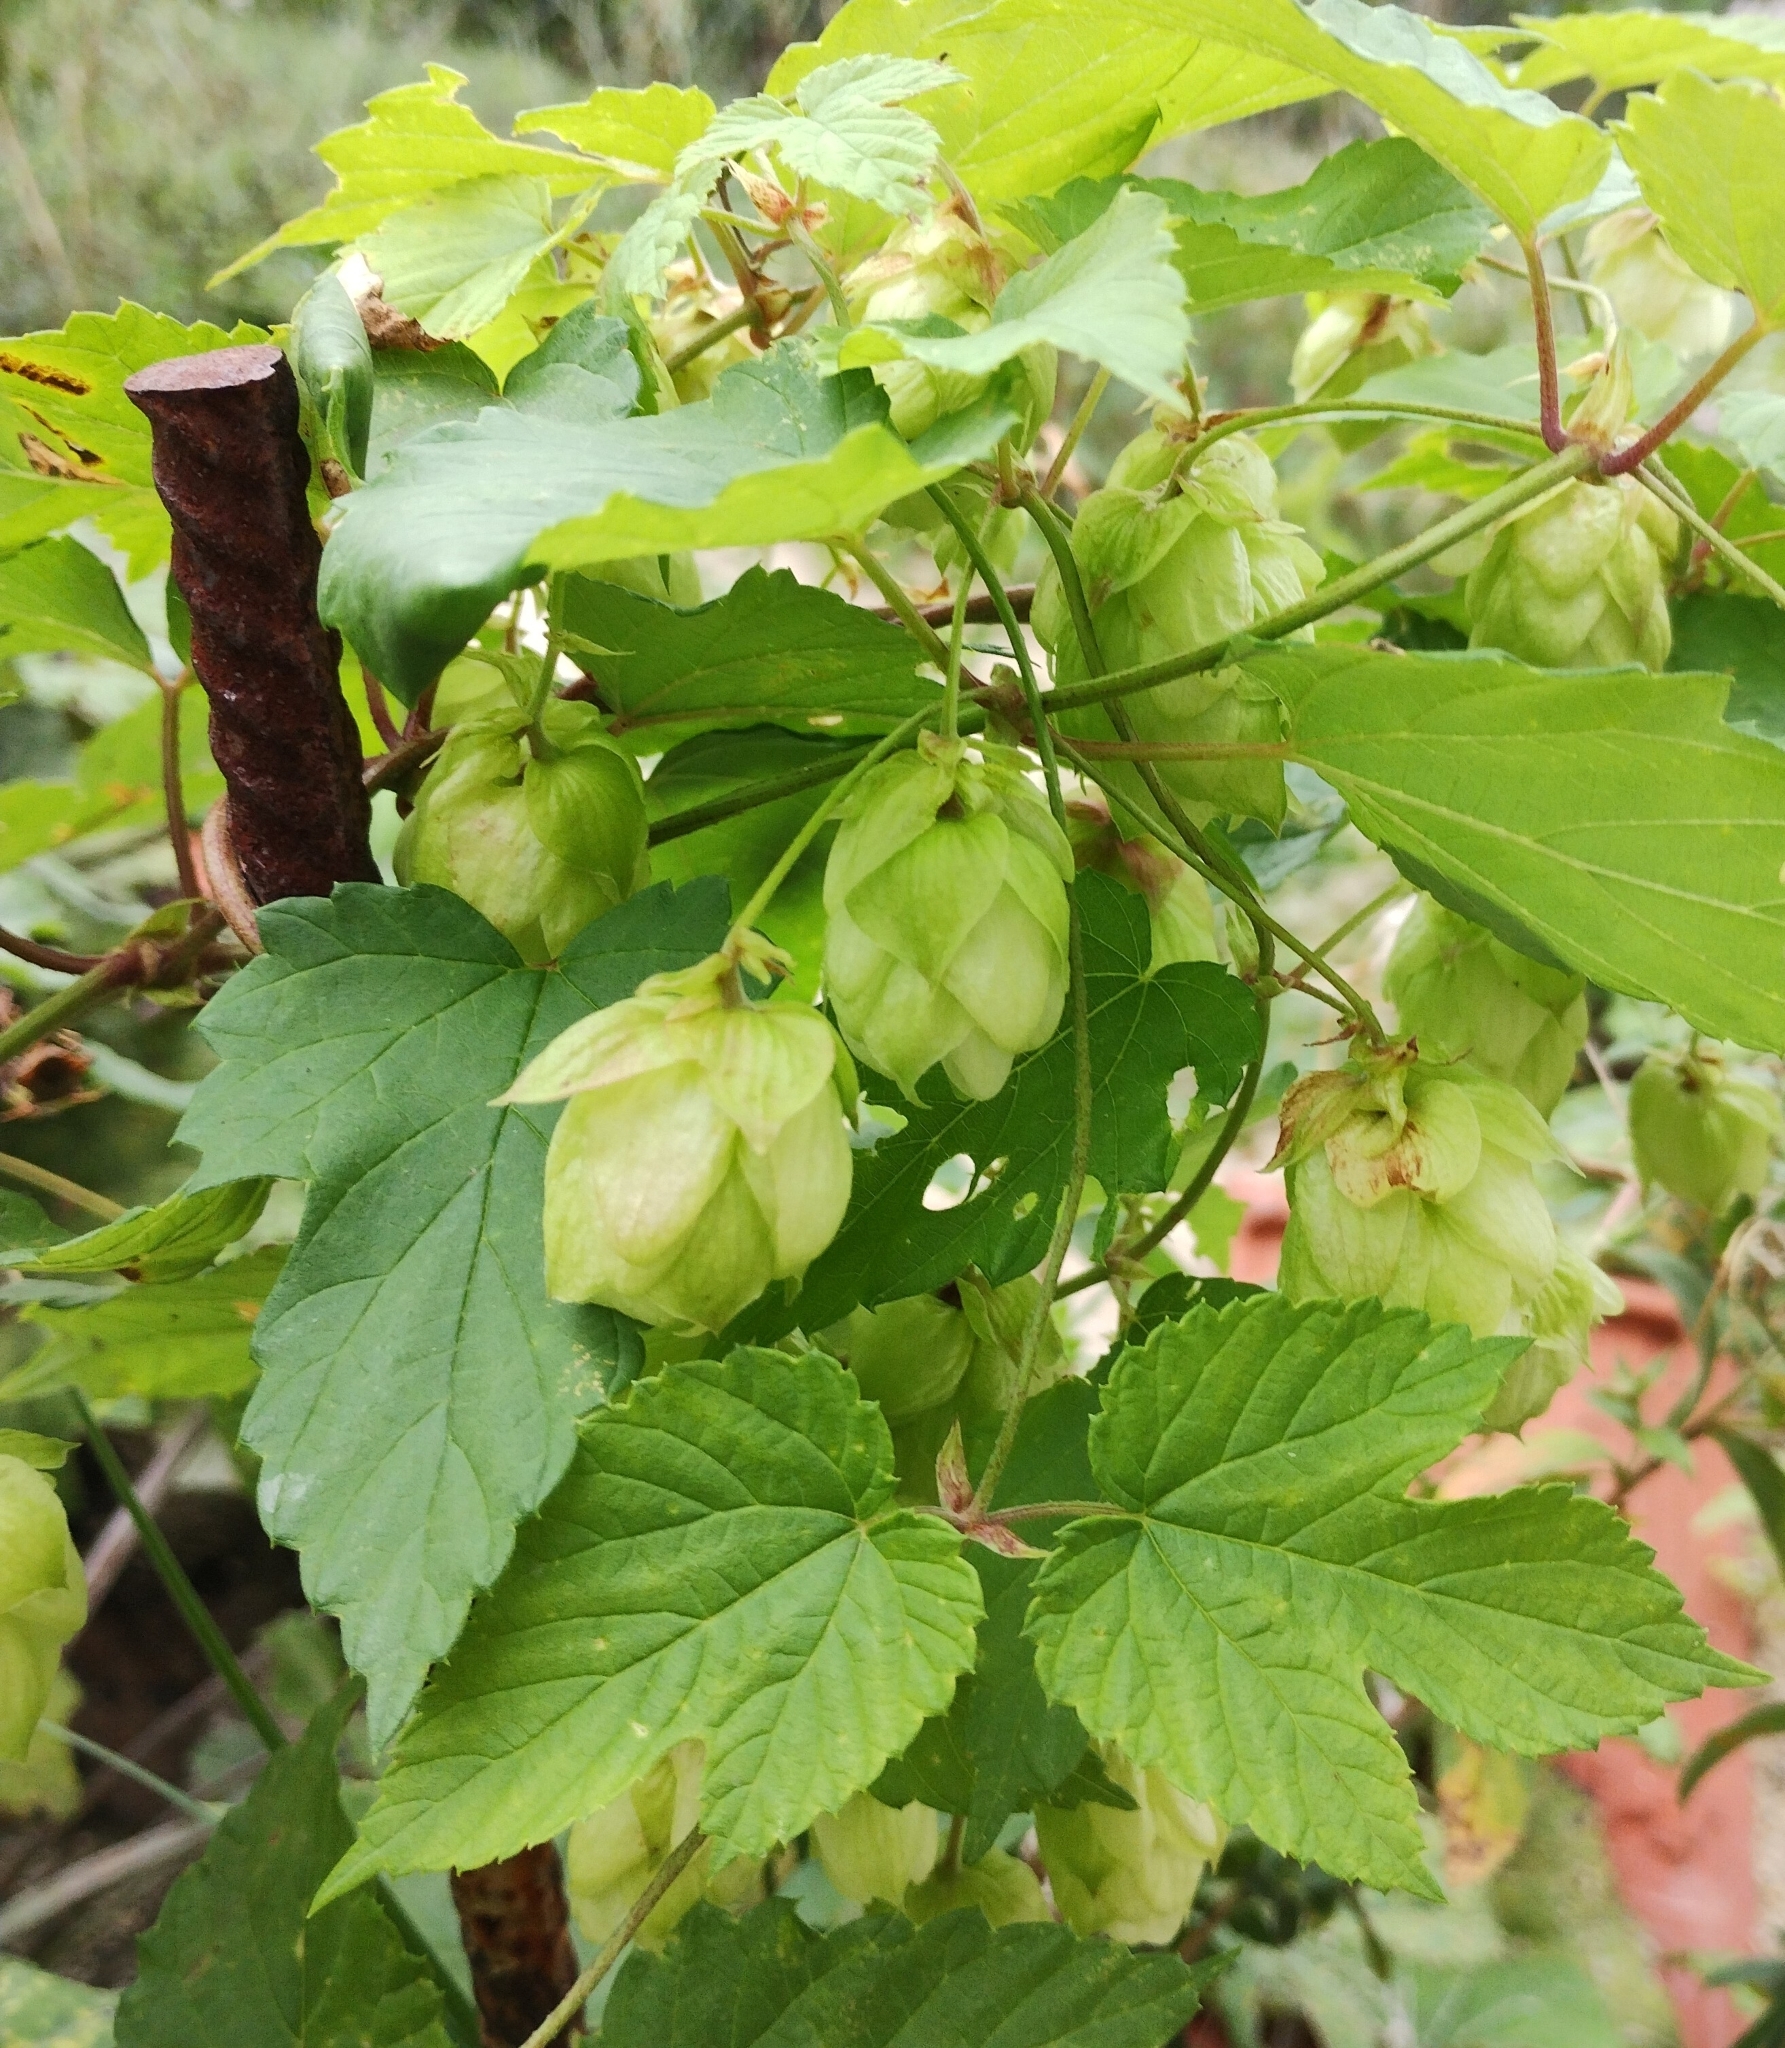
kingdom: Plantae
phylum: Tracheophyta
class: Magnoliopsida
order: Rosales
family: Cannabaceae
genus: Humulus
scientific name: Humulus lupulus
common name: Hop
